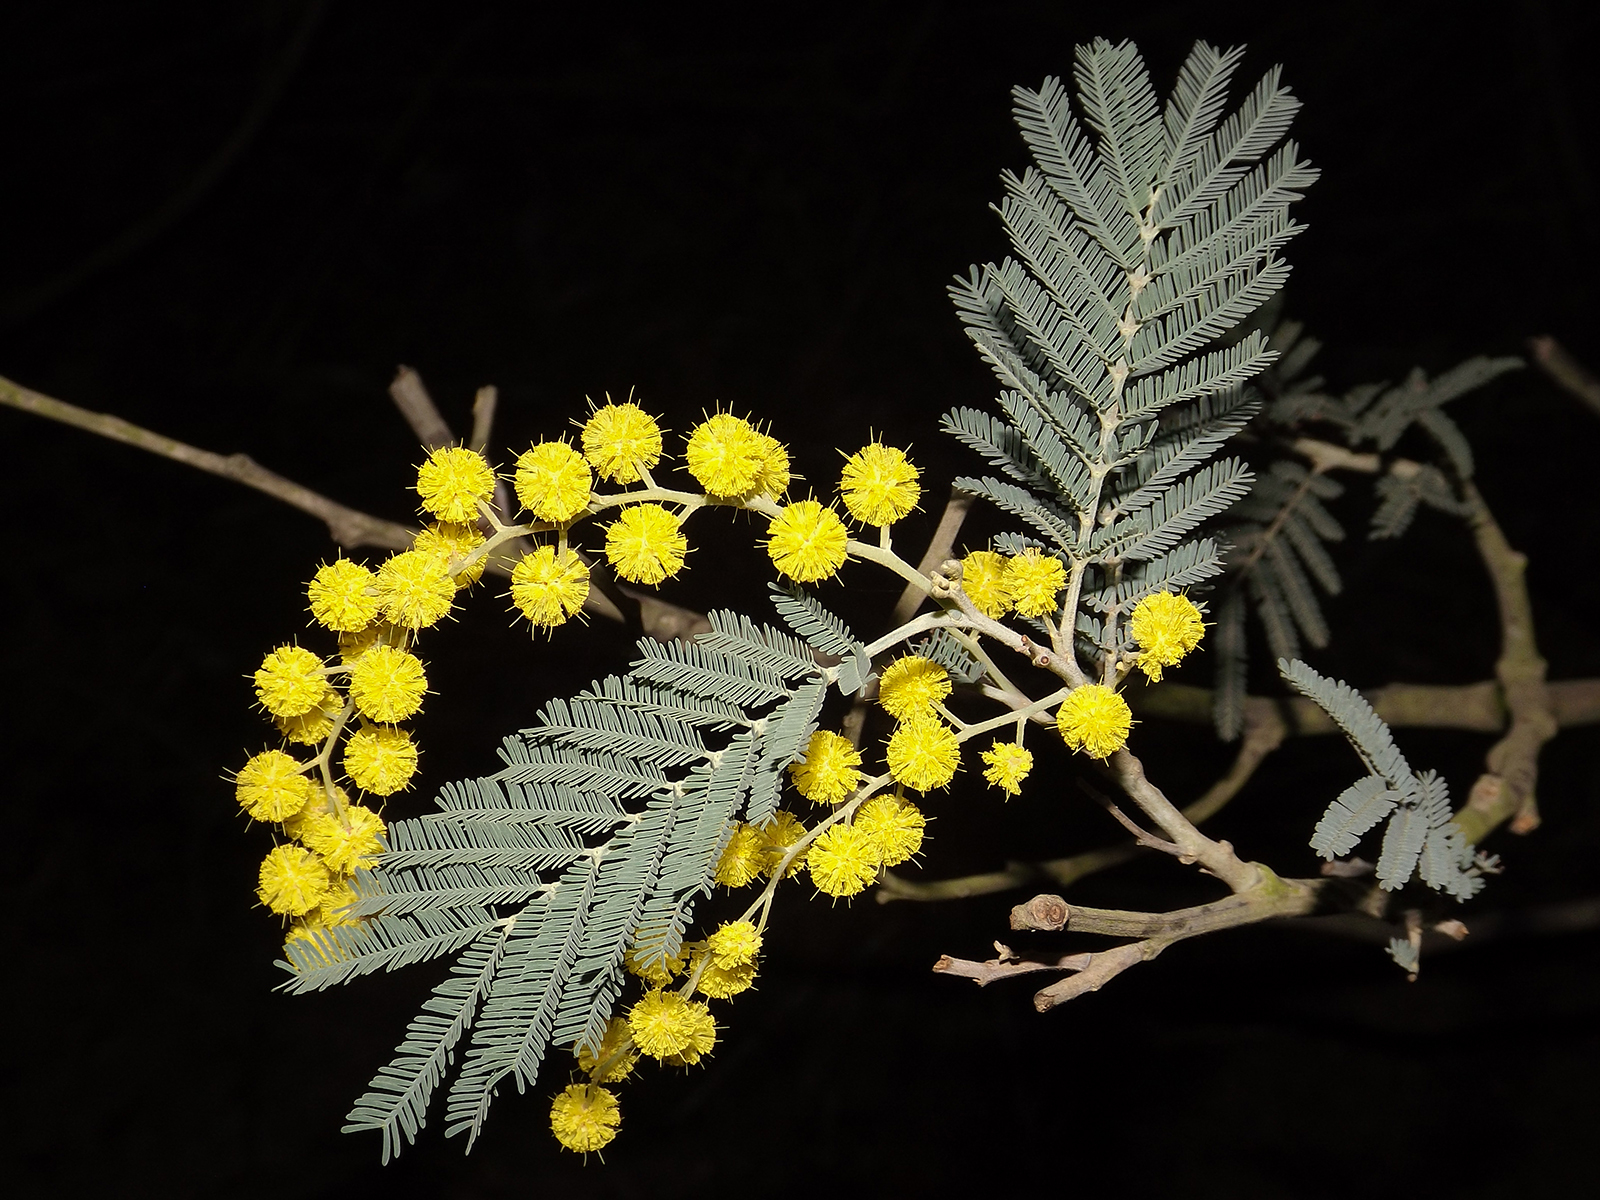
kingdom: Plantae
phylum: Tracheophyta
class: Magnoliopsida
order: Fabales
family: Fabaceae
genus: Acacia
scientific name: Acacia dealbata
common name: Silver wattle
